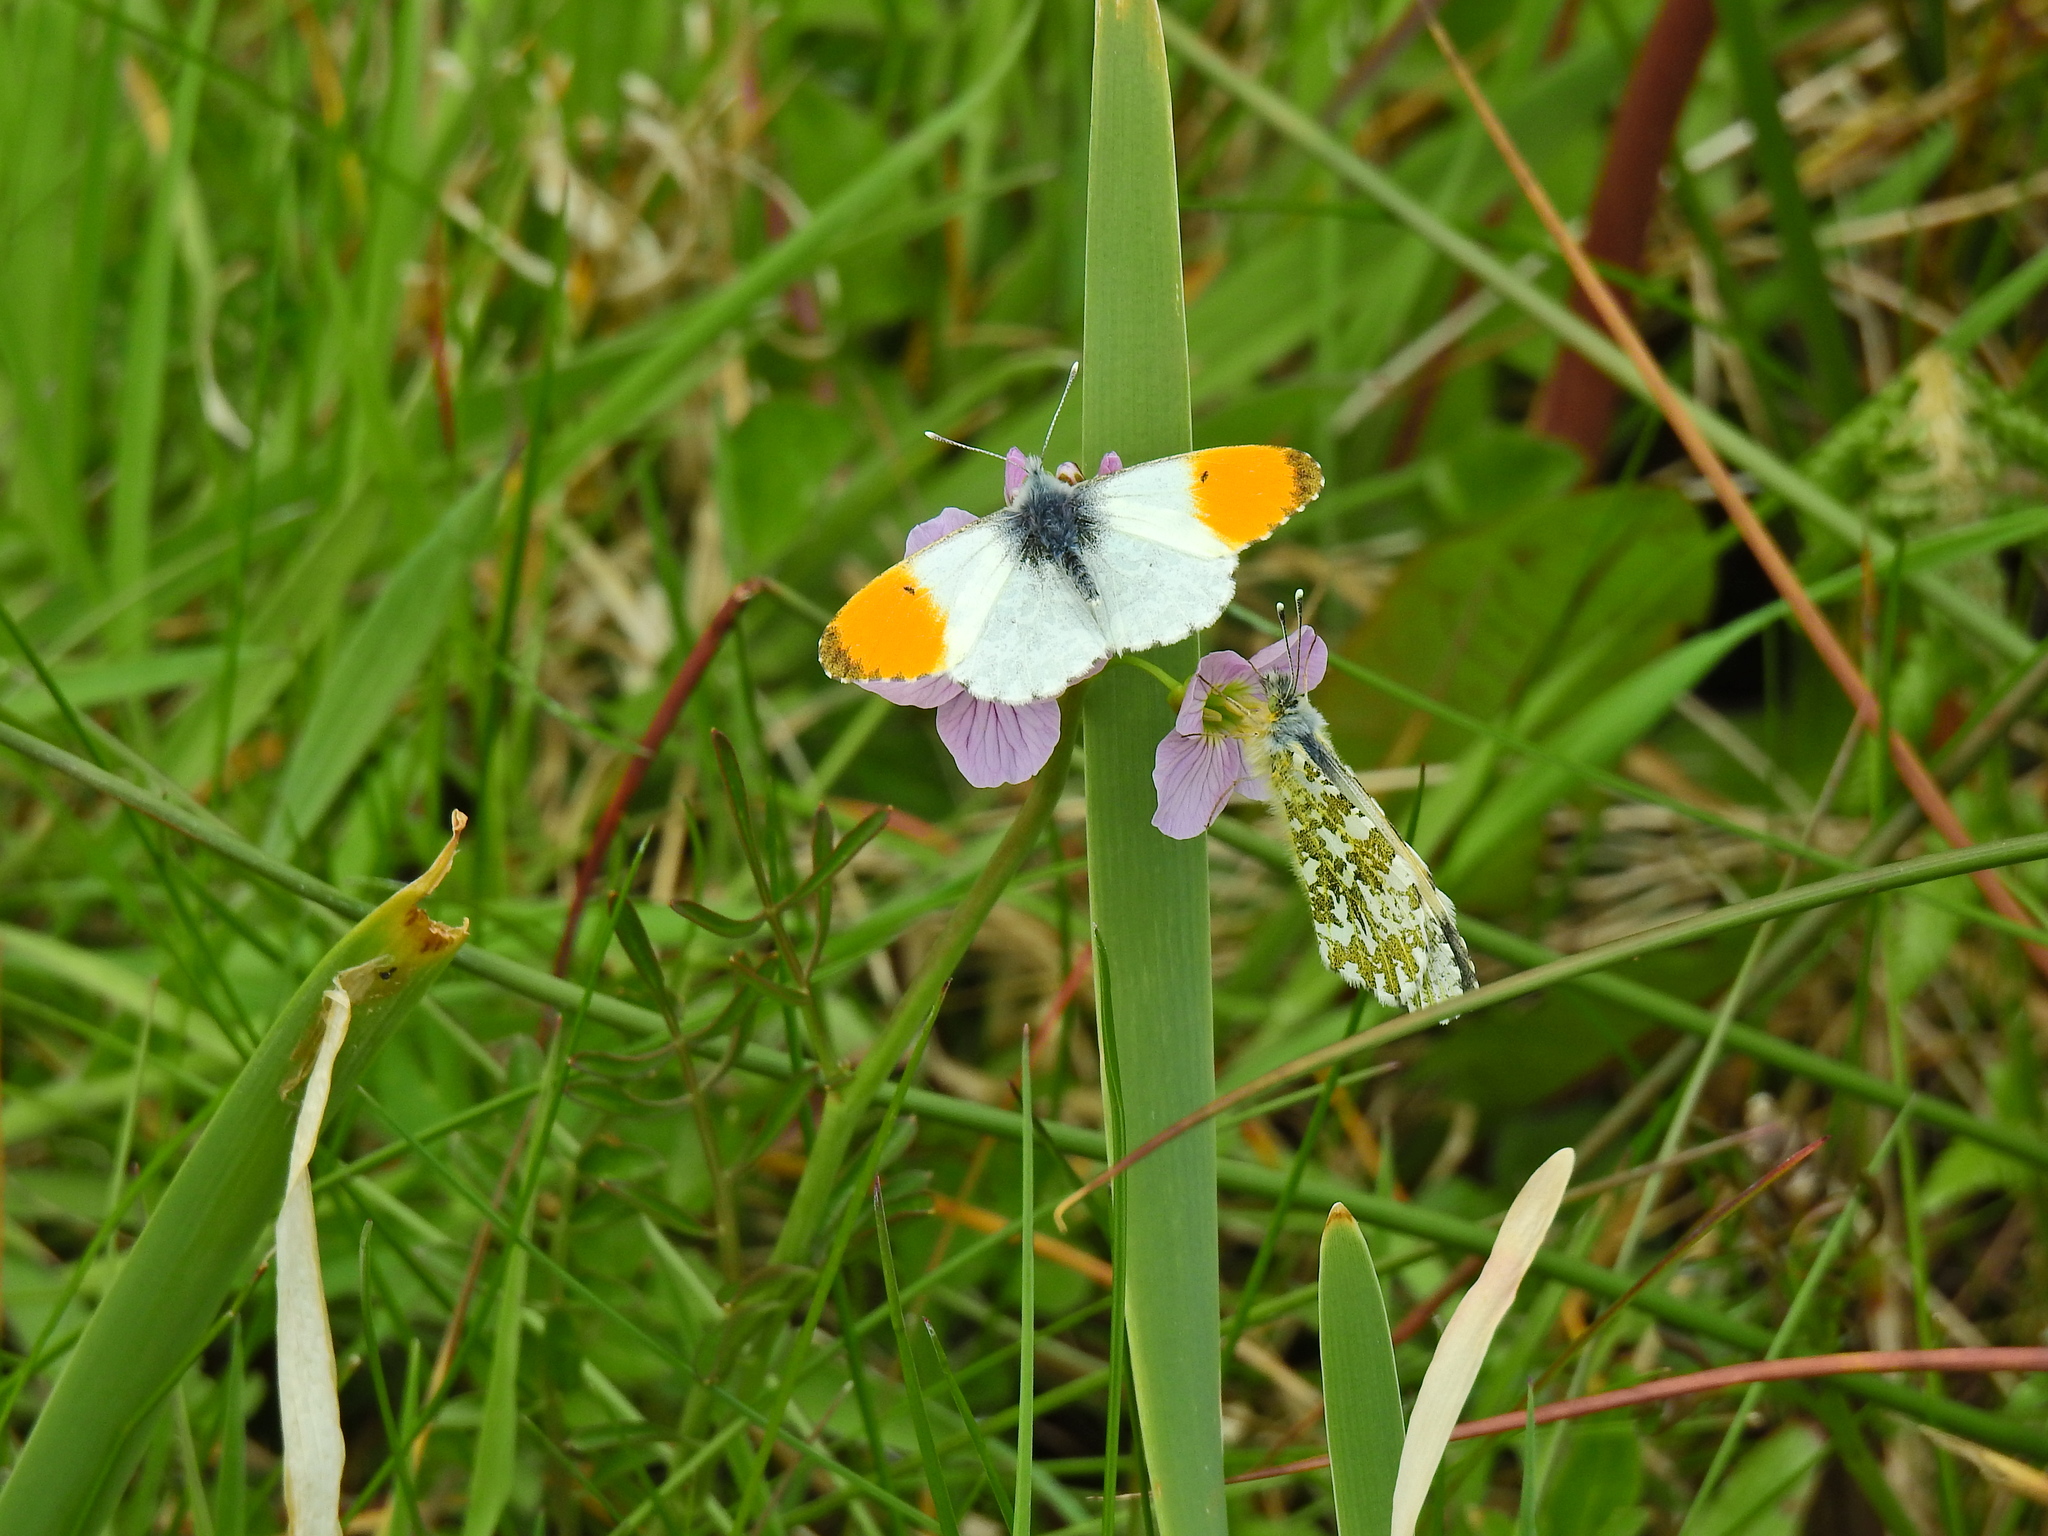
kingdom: Animalia
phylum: Arthropoda
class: Insecta
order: Lepidoptera
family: Pieridae
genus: Anthocharis
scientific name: Anthocharis cardamines
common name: Orange-tip
